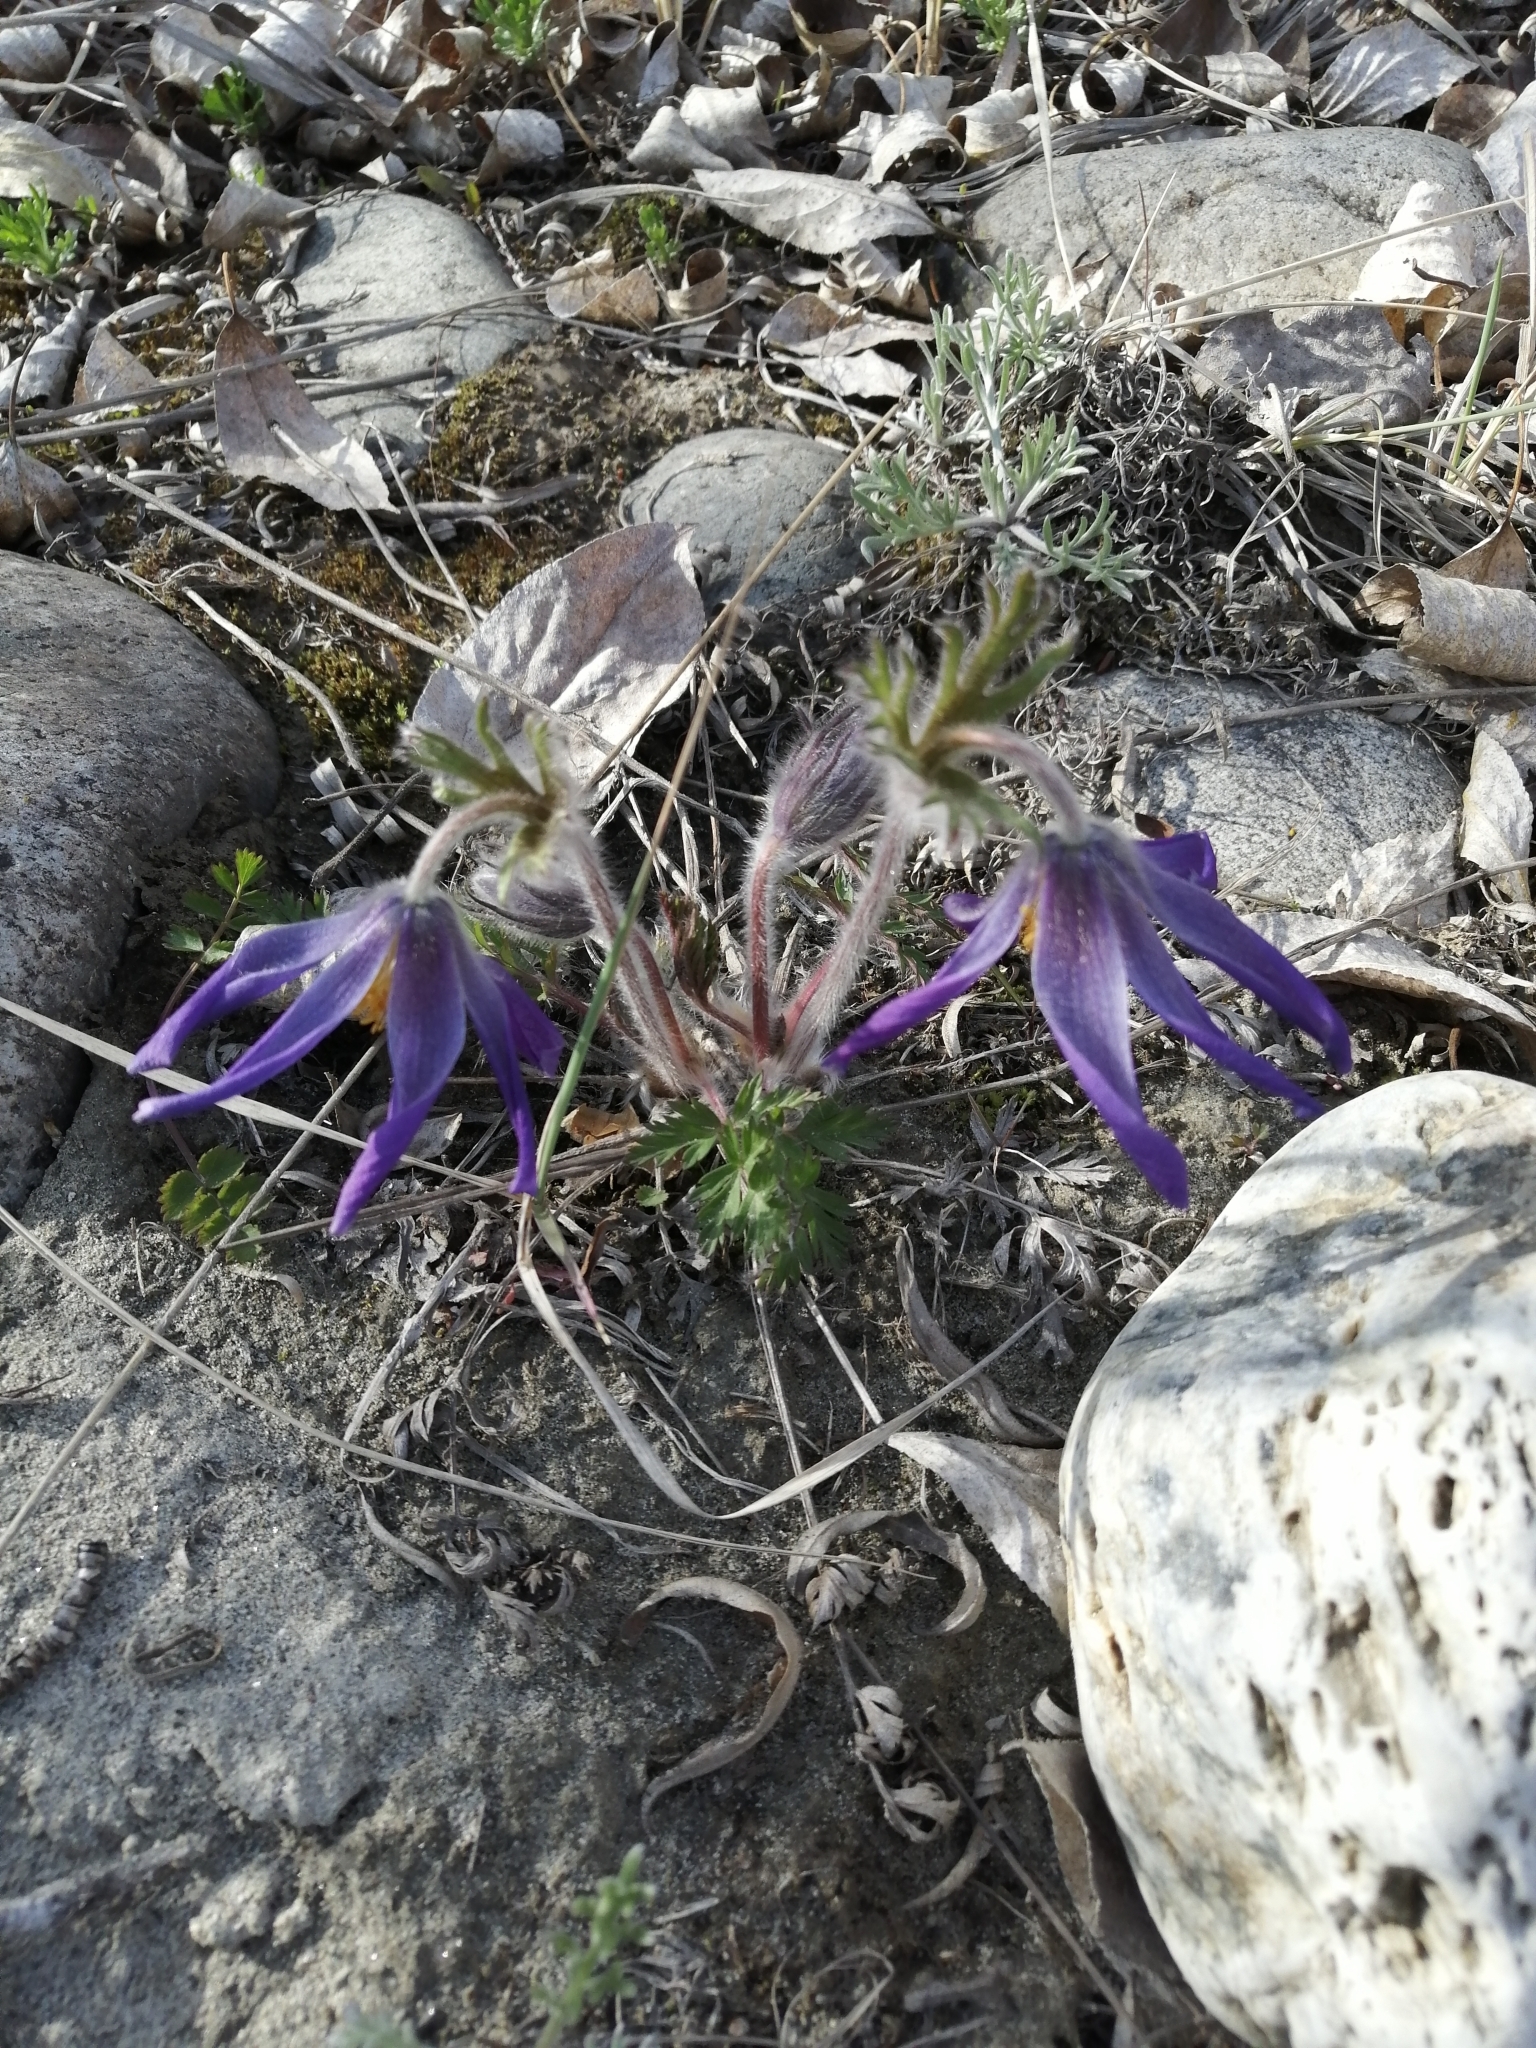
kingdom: Plantae
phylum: Tracheophyta
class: Magnoliopsida
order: Ranunculales
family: Ranunculaceae
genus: Pulsatilla
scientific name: Pulsatilla ambigua
